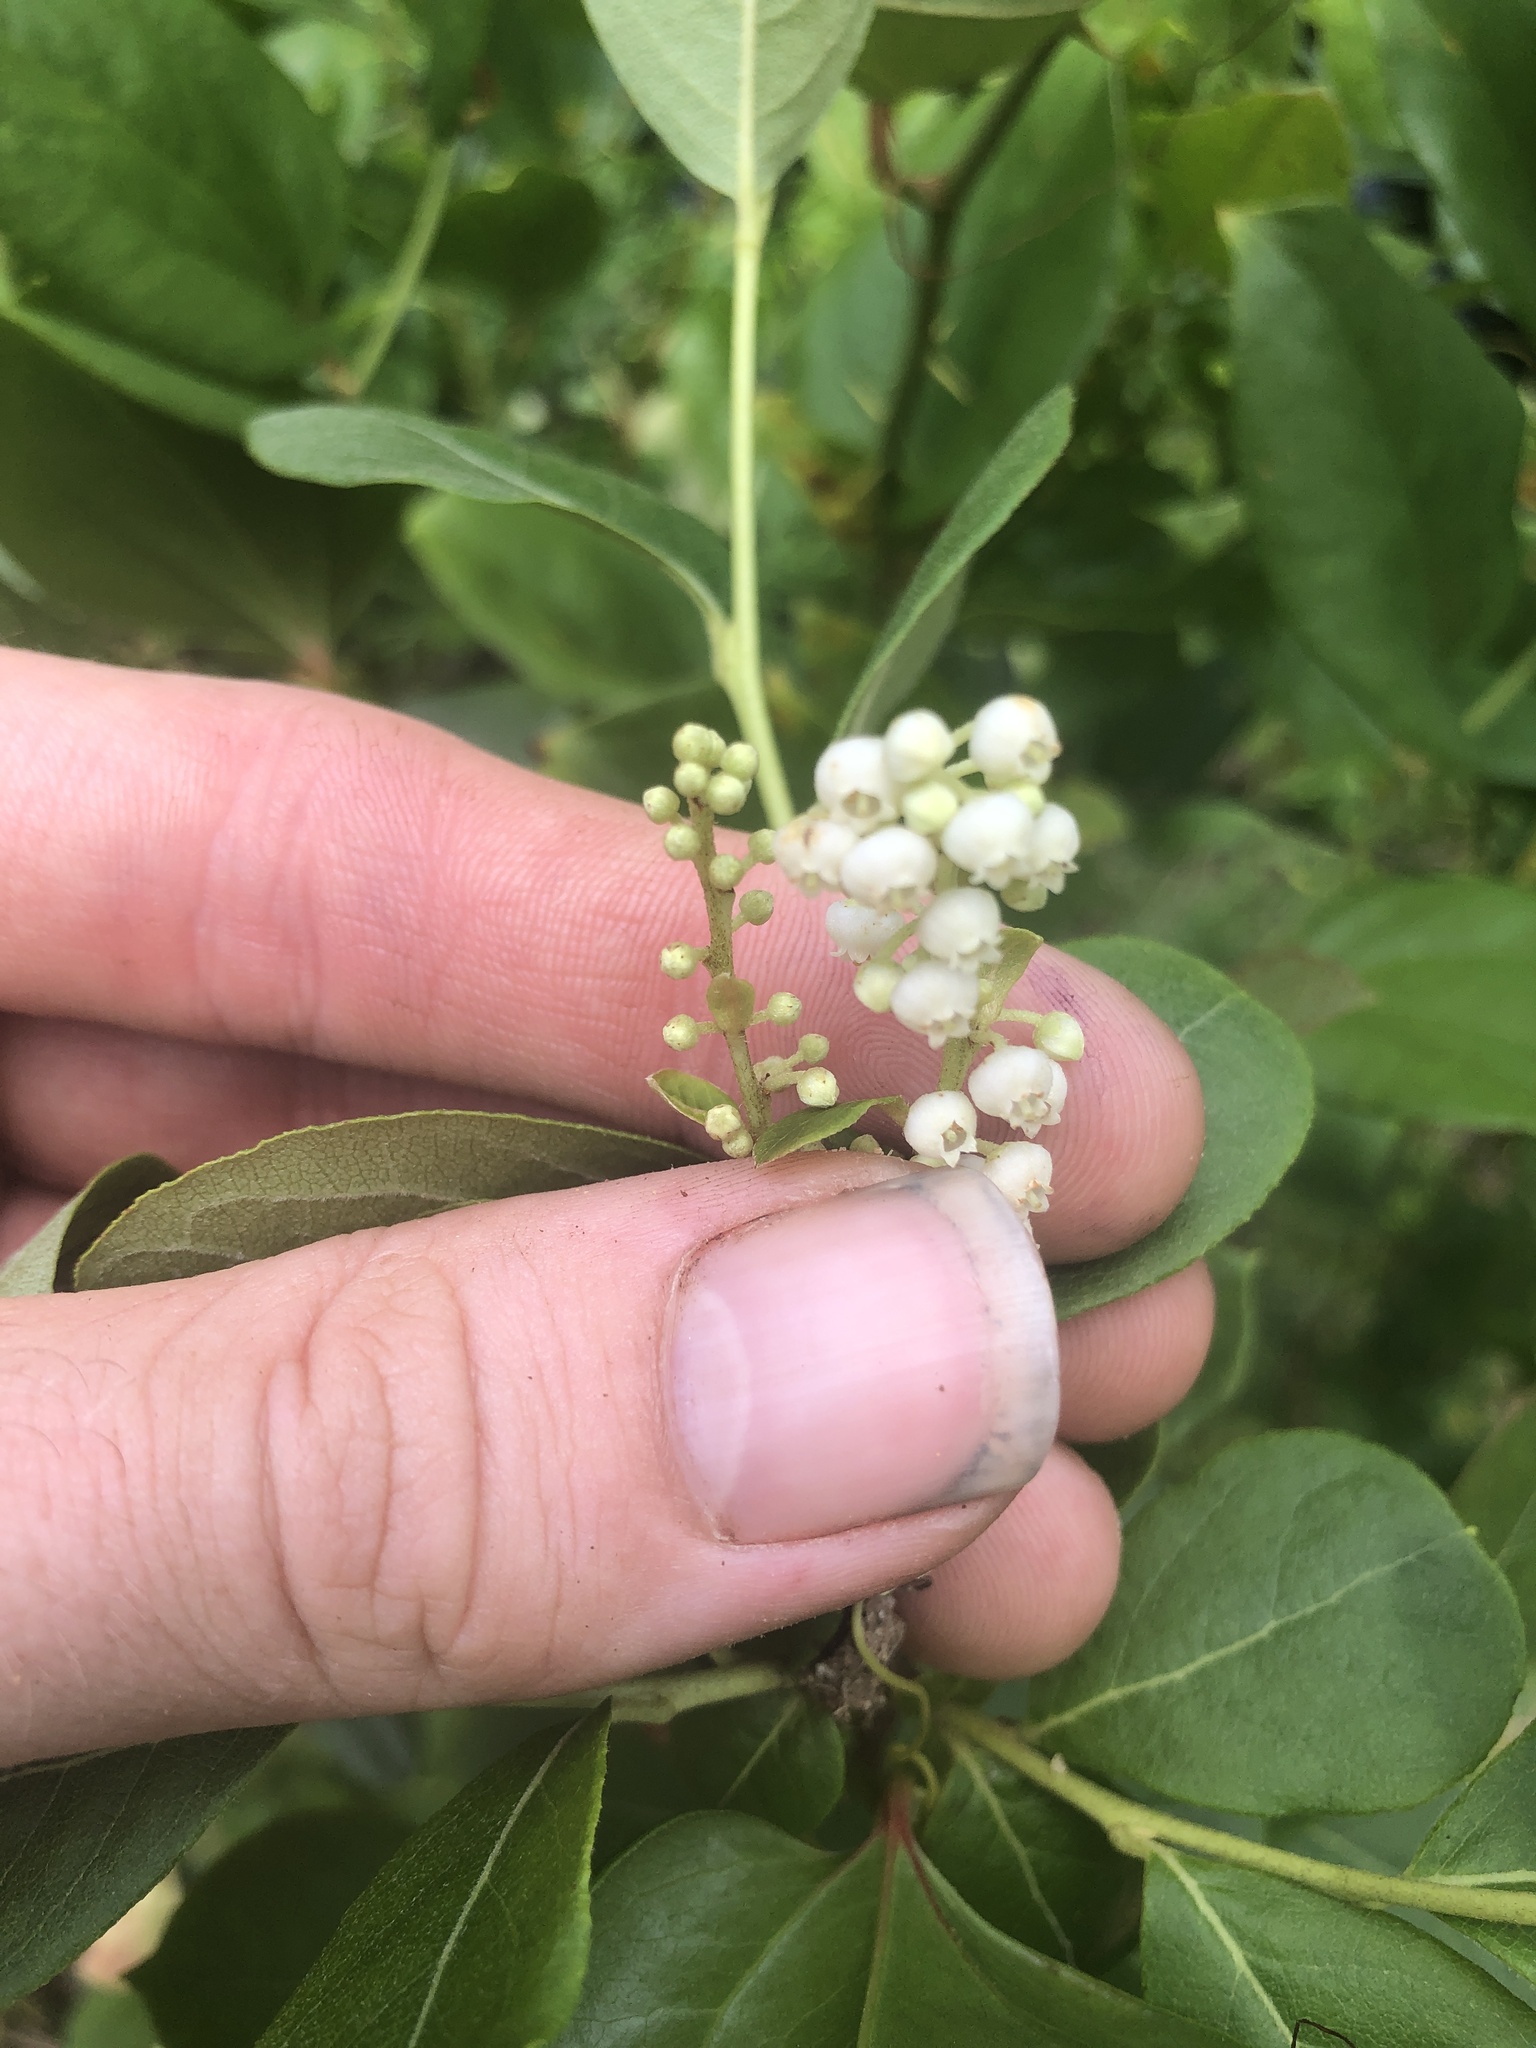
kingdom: Plantae
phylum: Tracheophyta
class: Magnoliopsida
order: Ericales
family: Ericaceae
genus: Lyonia
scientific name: Lyonia ligustrina
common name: Maleberry
